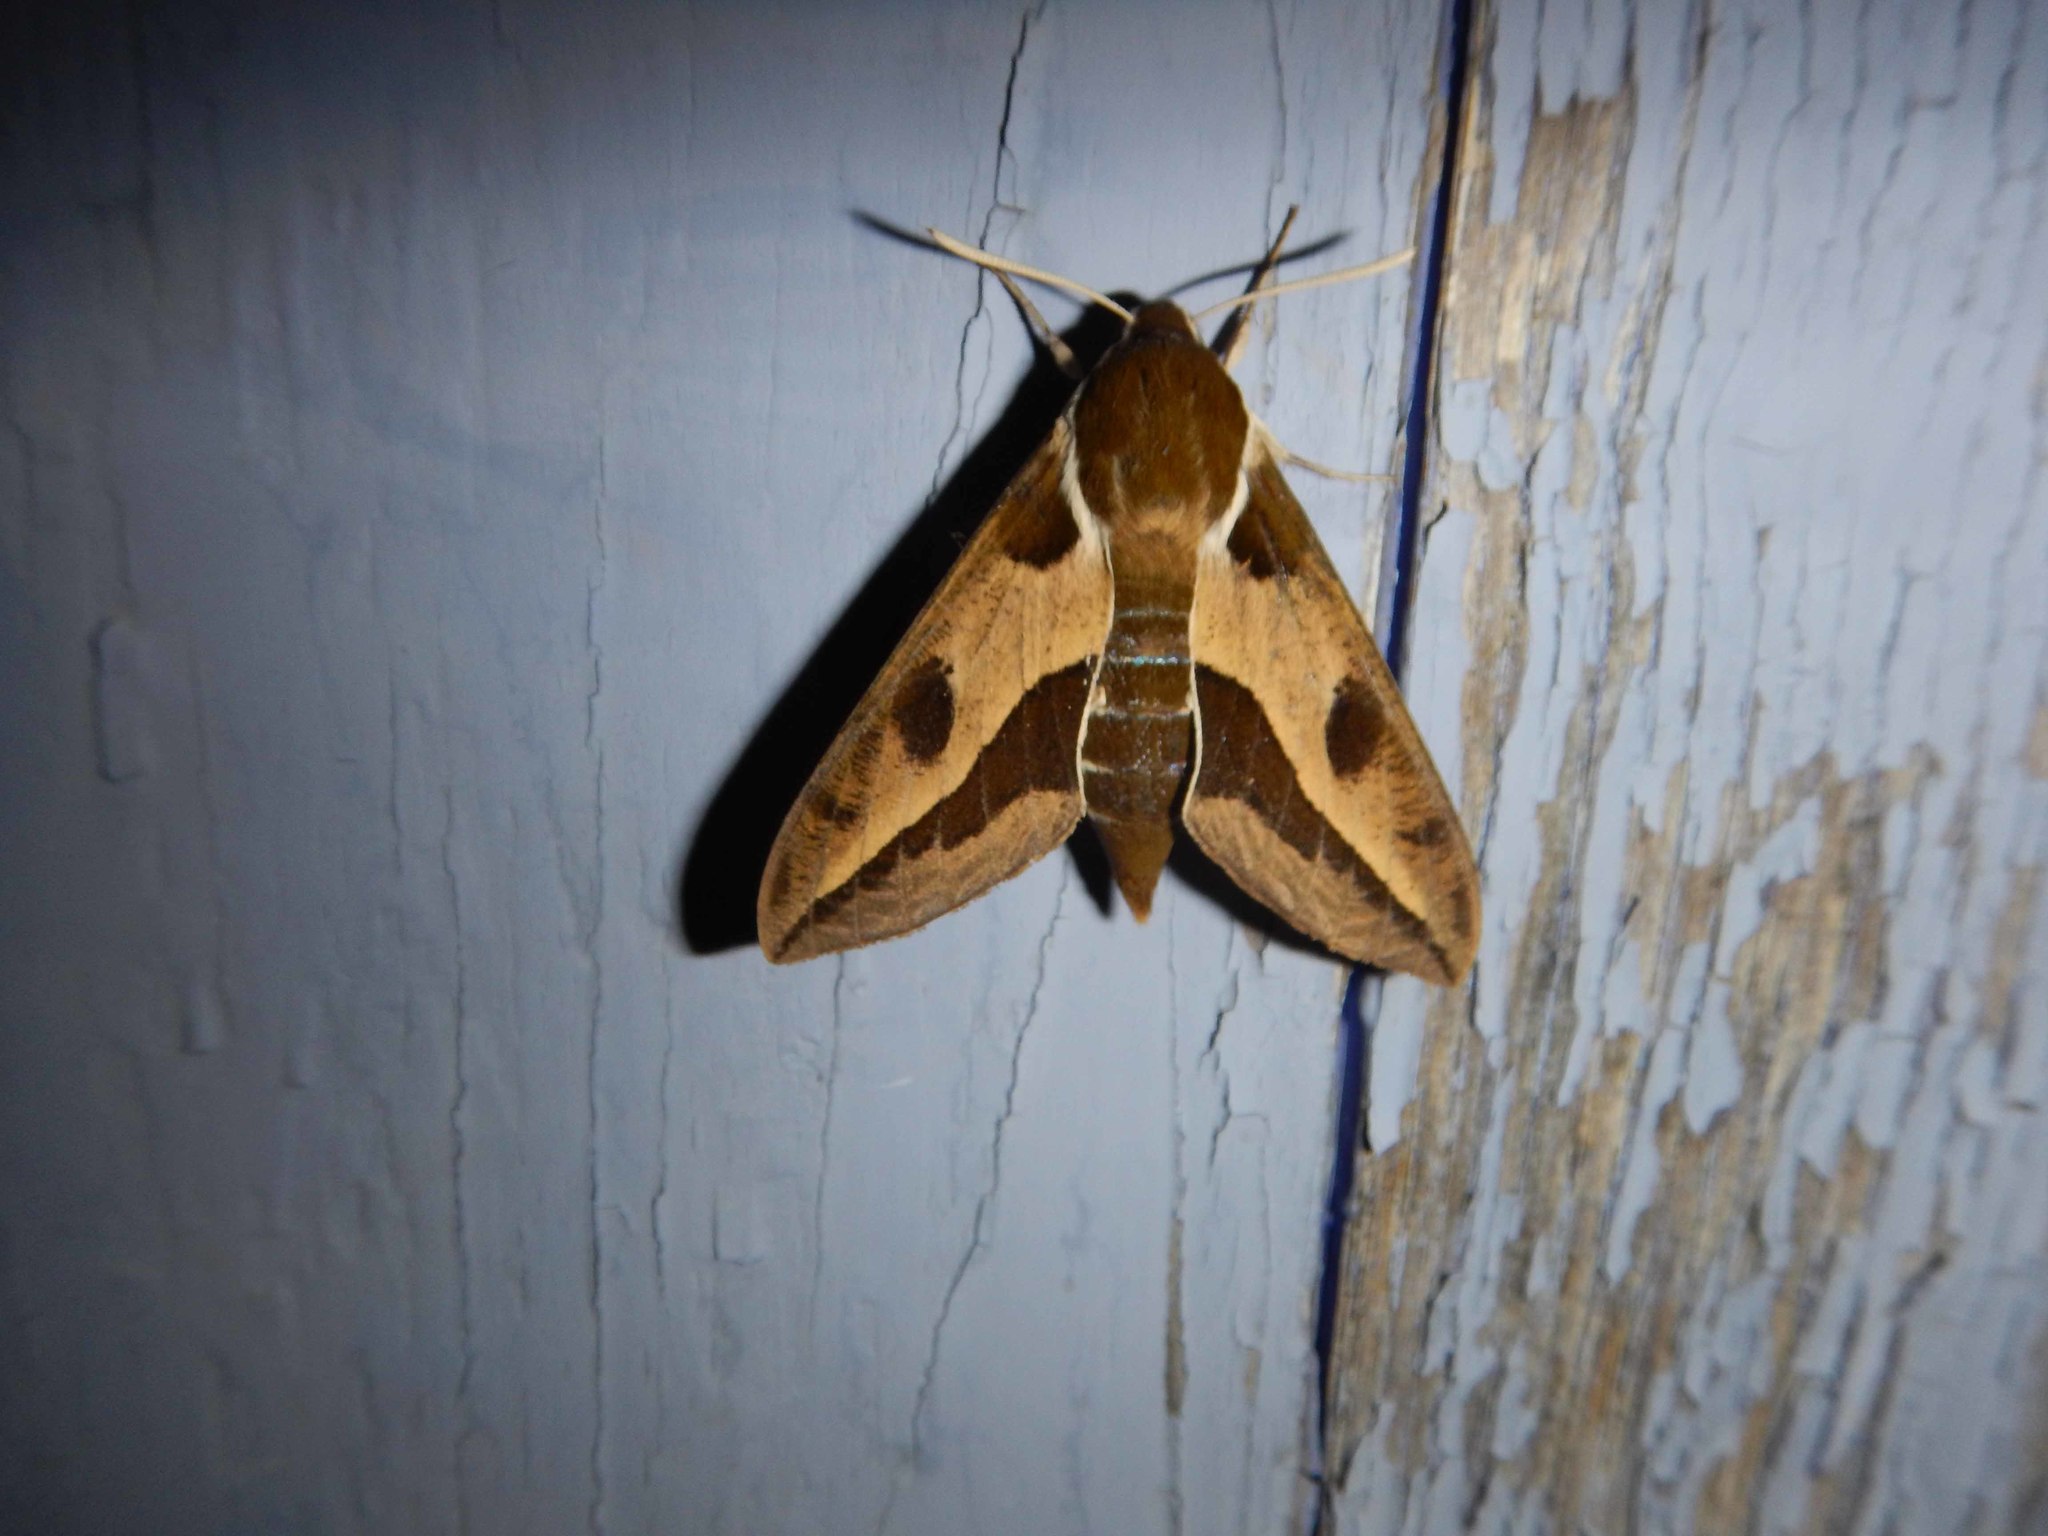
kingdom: Animalia
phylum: Arthropoda
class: Insecta
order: Lepidoptera
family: Sphingidae
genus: Hyles
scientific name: Hyles euphorbiae
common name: Spurge hawk-moth
